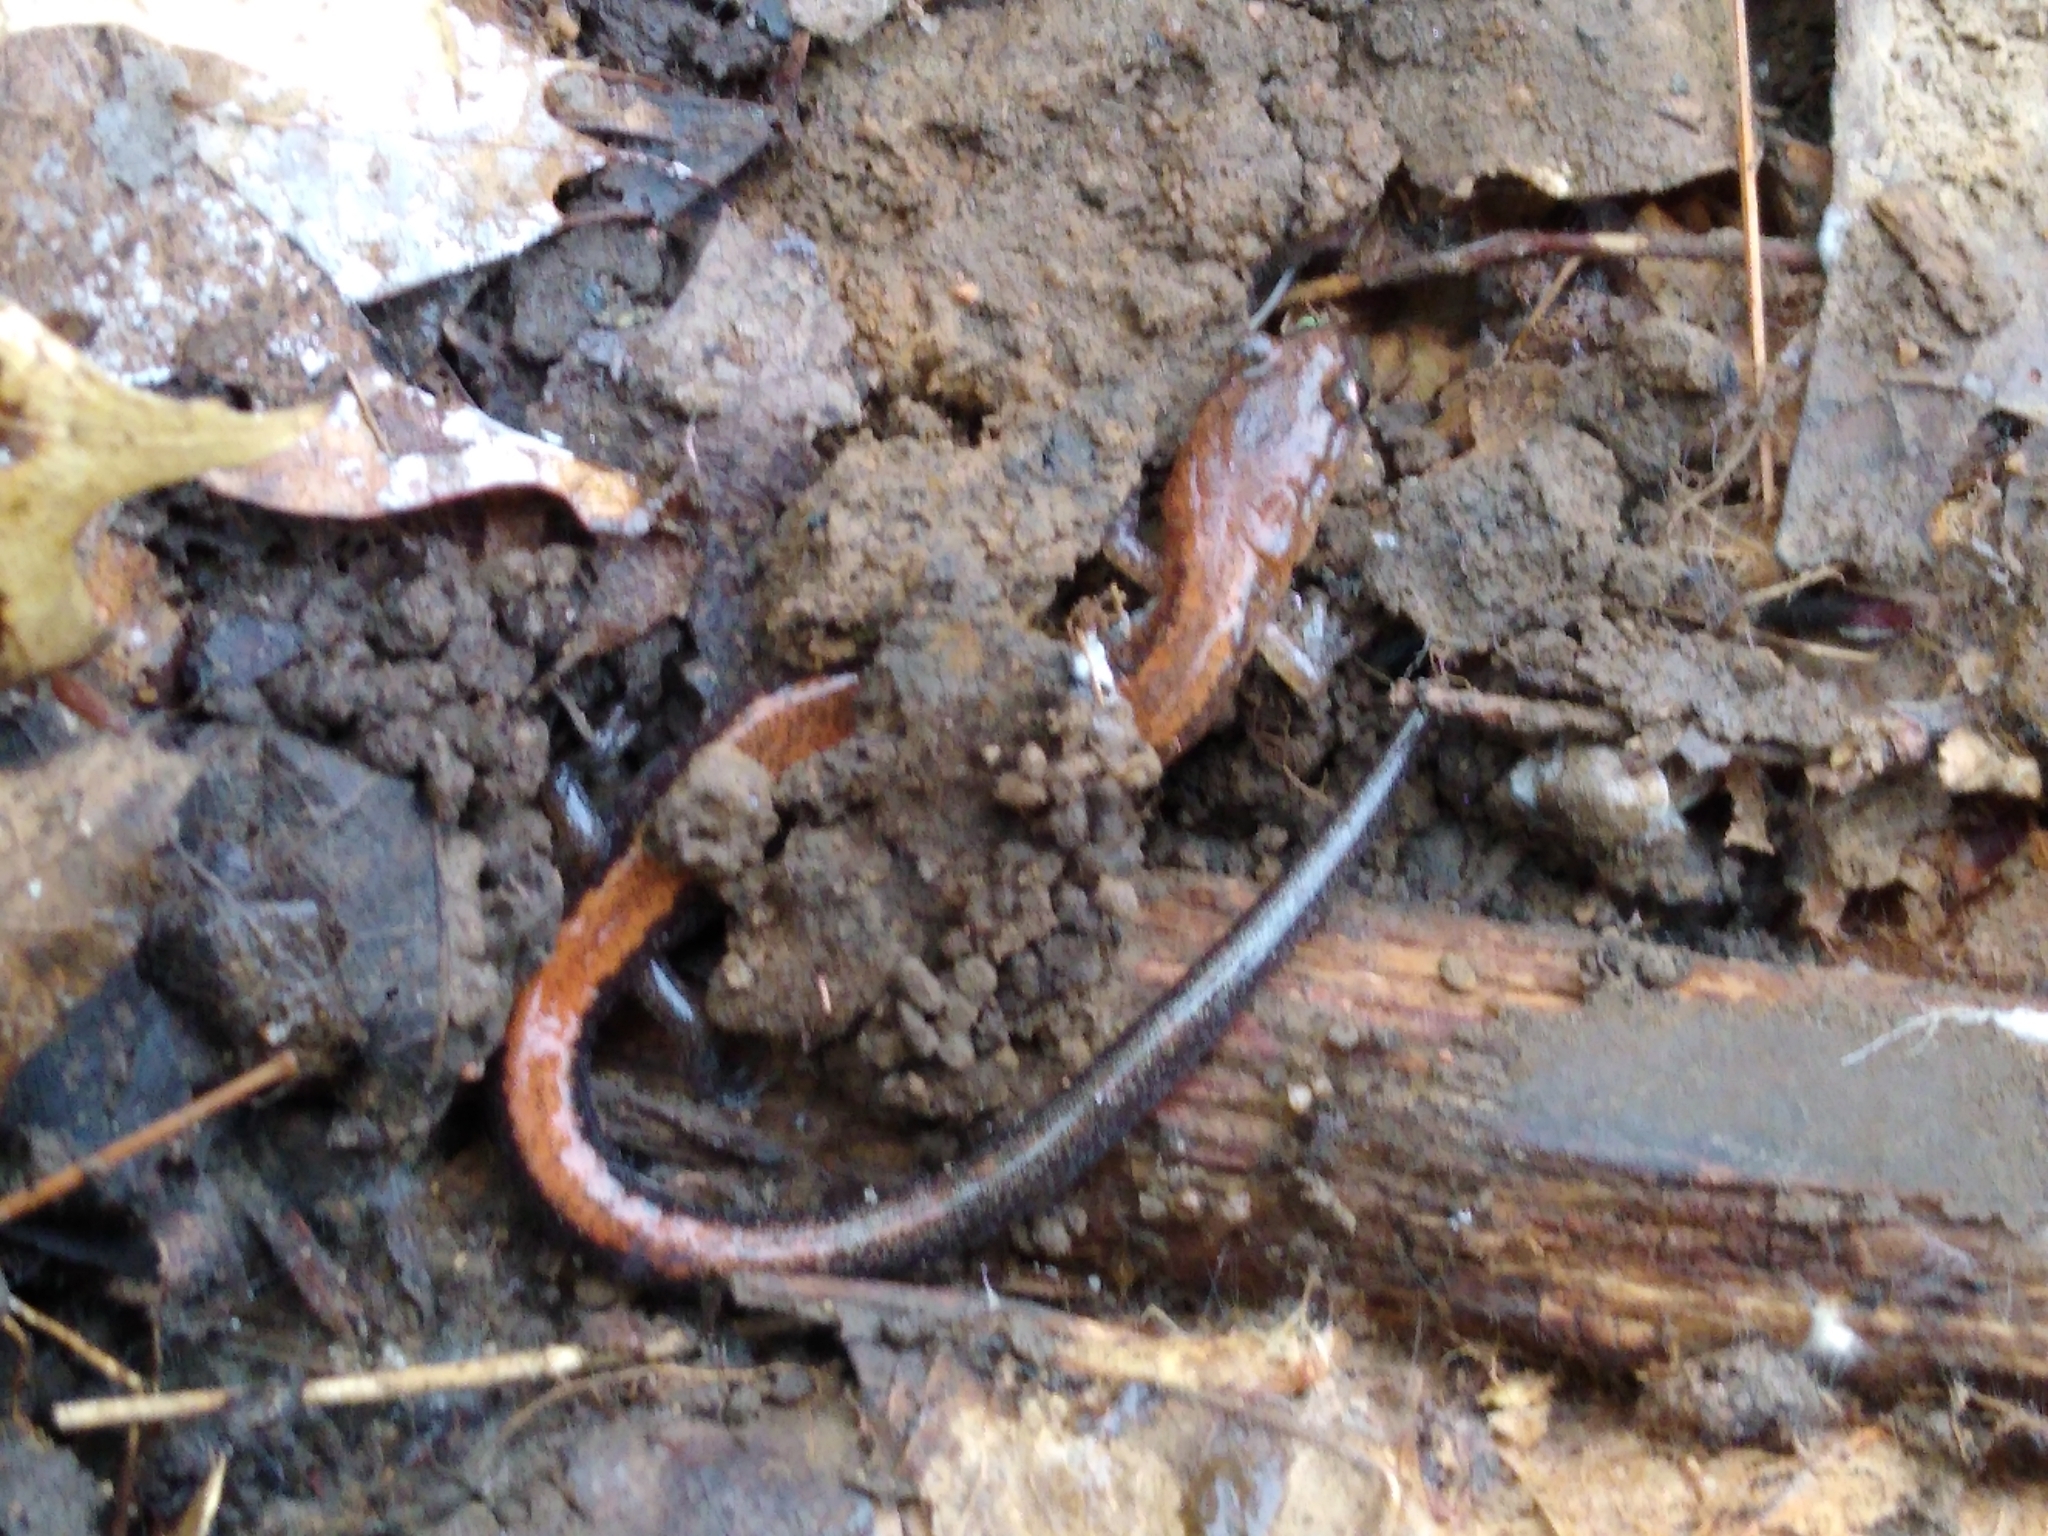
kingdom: Animalia
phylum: Chordata
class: Amphibia
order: Caudata
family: Plethodontidae
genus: Plethodon
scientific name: Plethodon cinereus
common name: Redback salamander
